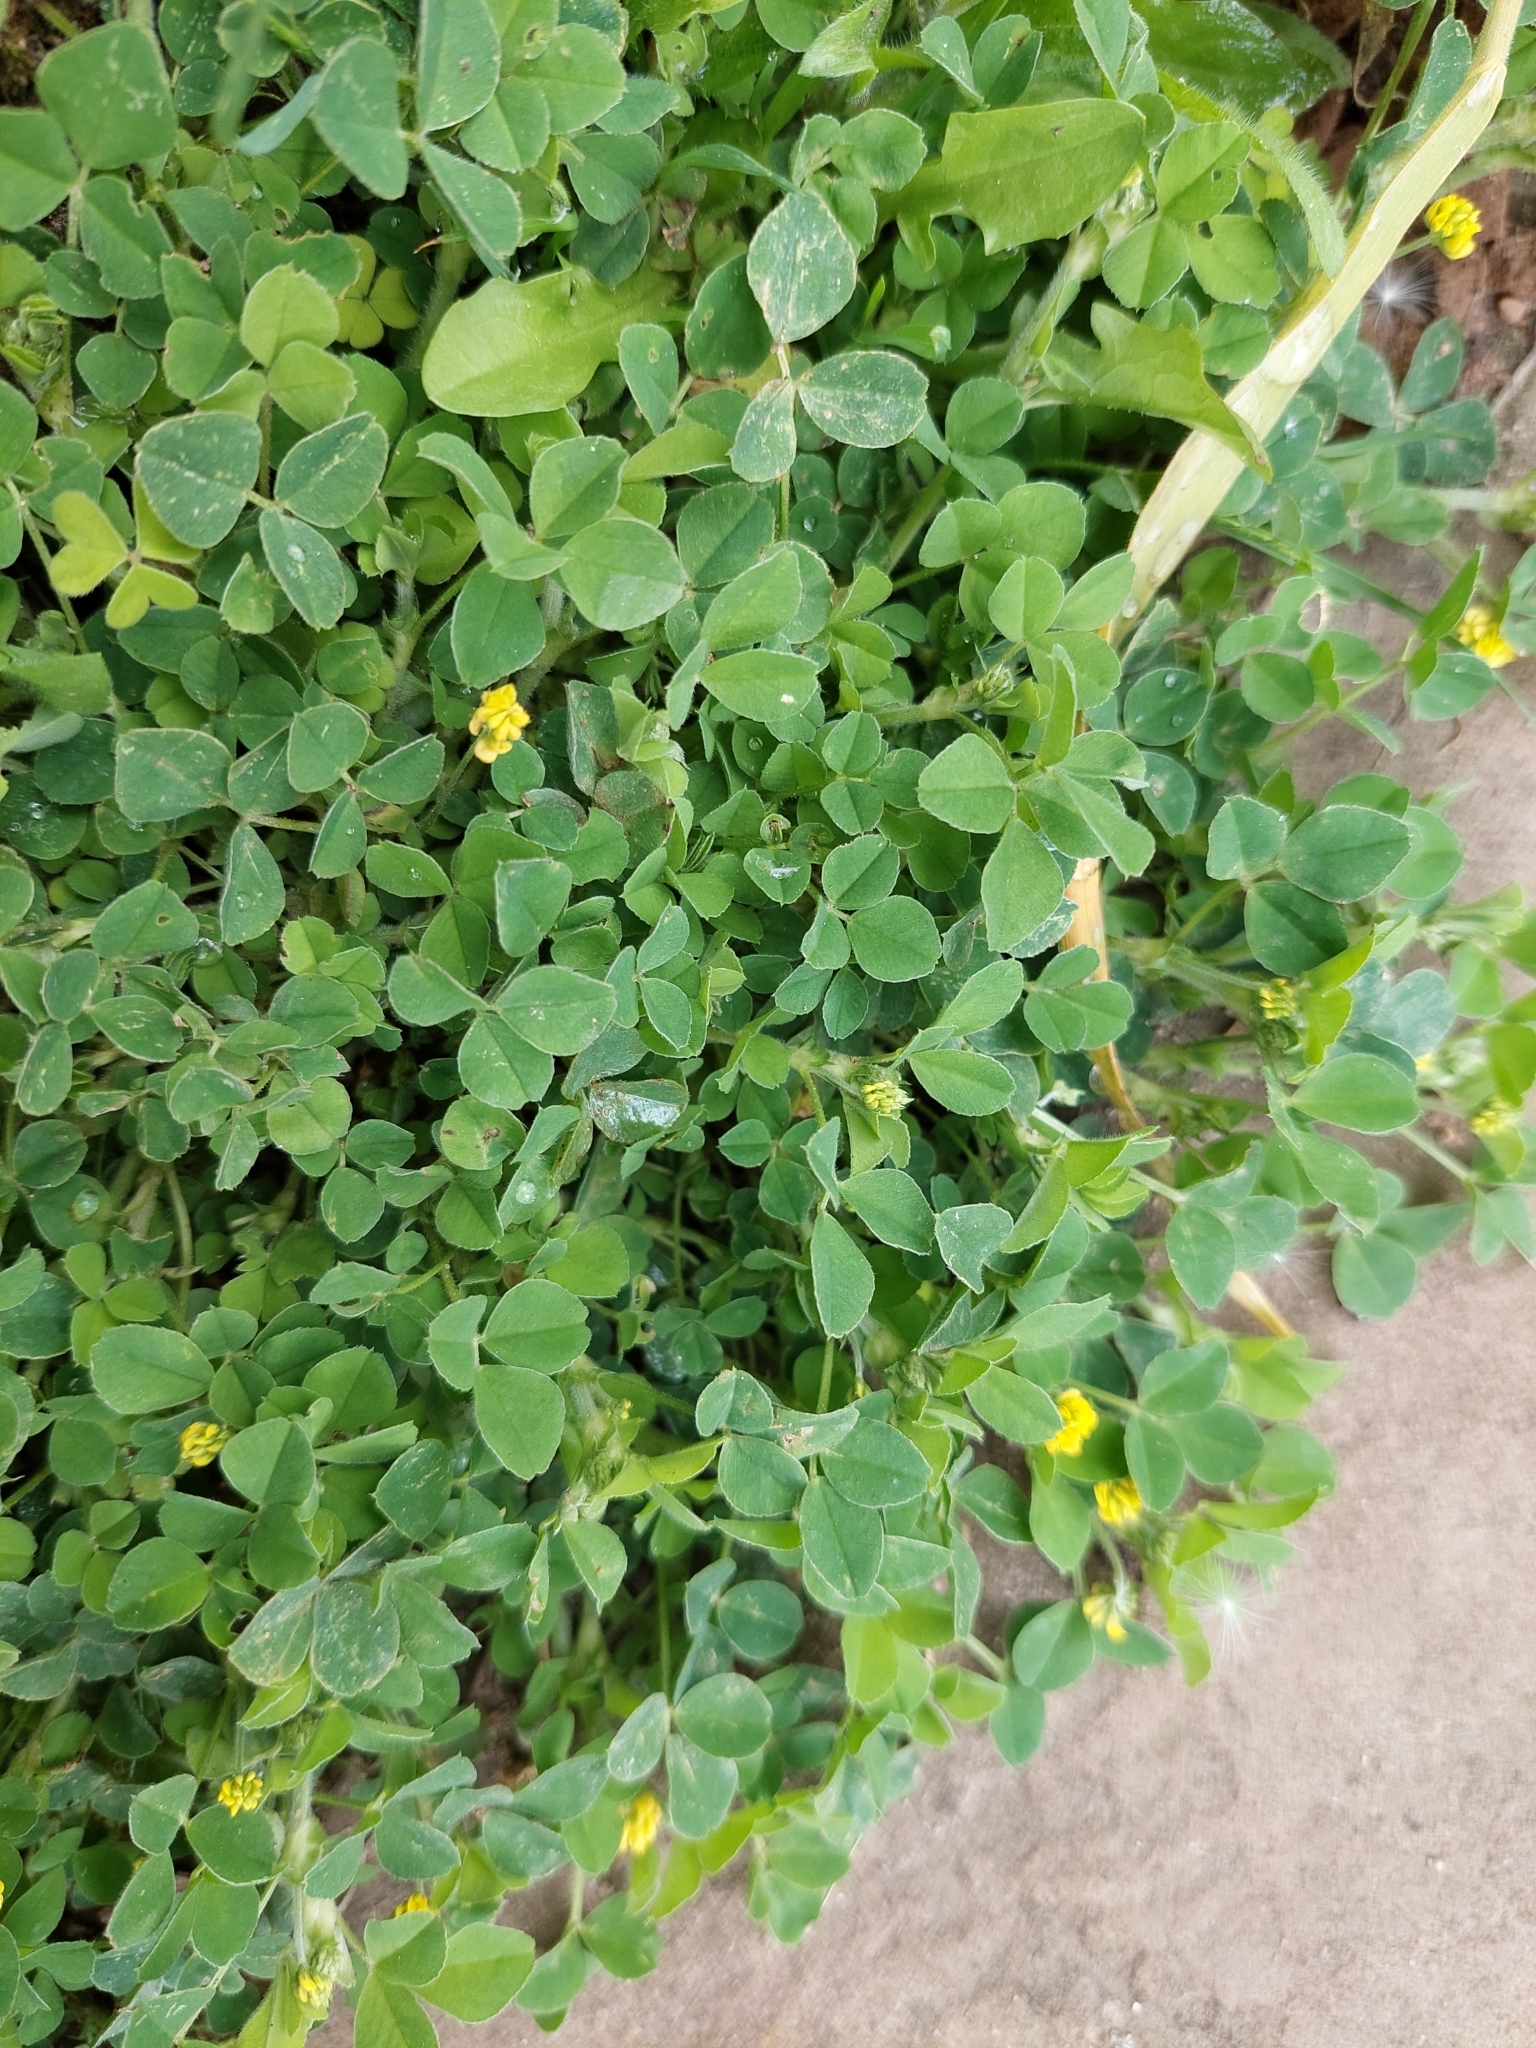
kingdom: Plantae
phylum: Tracheophyta
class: Magnoliopsida
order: Fabales
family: Fabaceae
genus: Medicago
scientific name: Medicago lupulina
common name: Black medick
